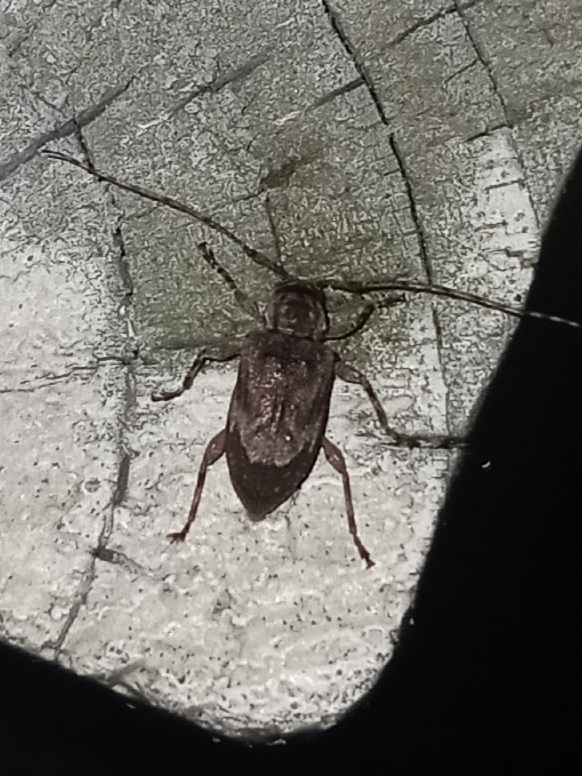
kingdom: Animalia
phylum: Arthropoda
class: Insecta
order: Coleoptera
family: Cerambycidae
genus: Astylopsis
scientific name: Astylopsis arcuata
